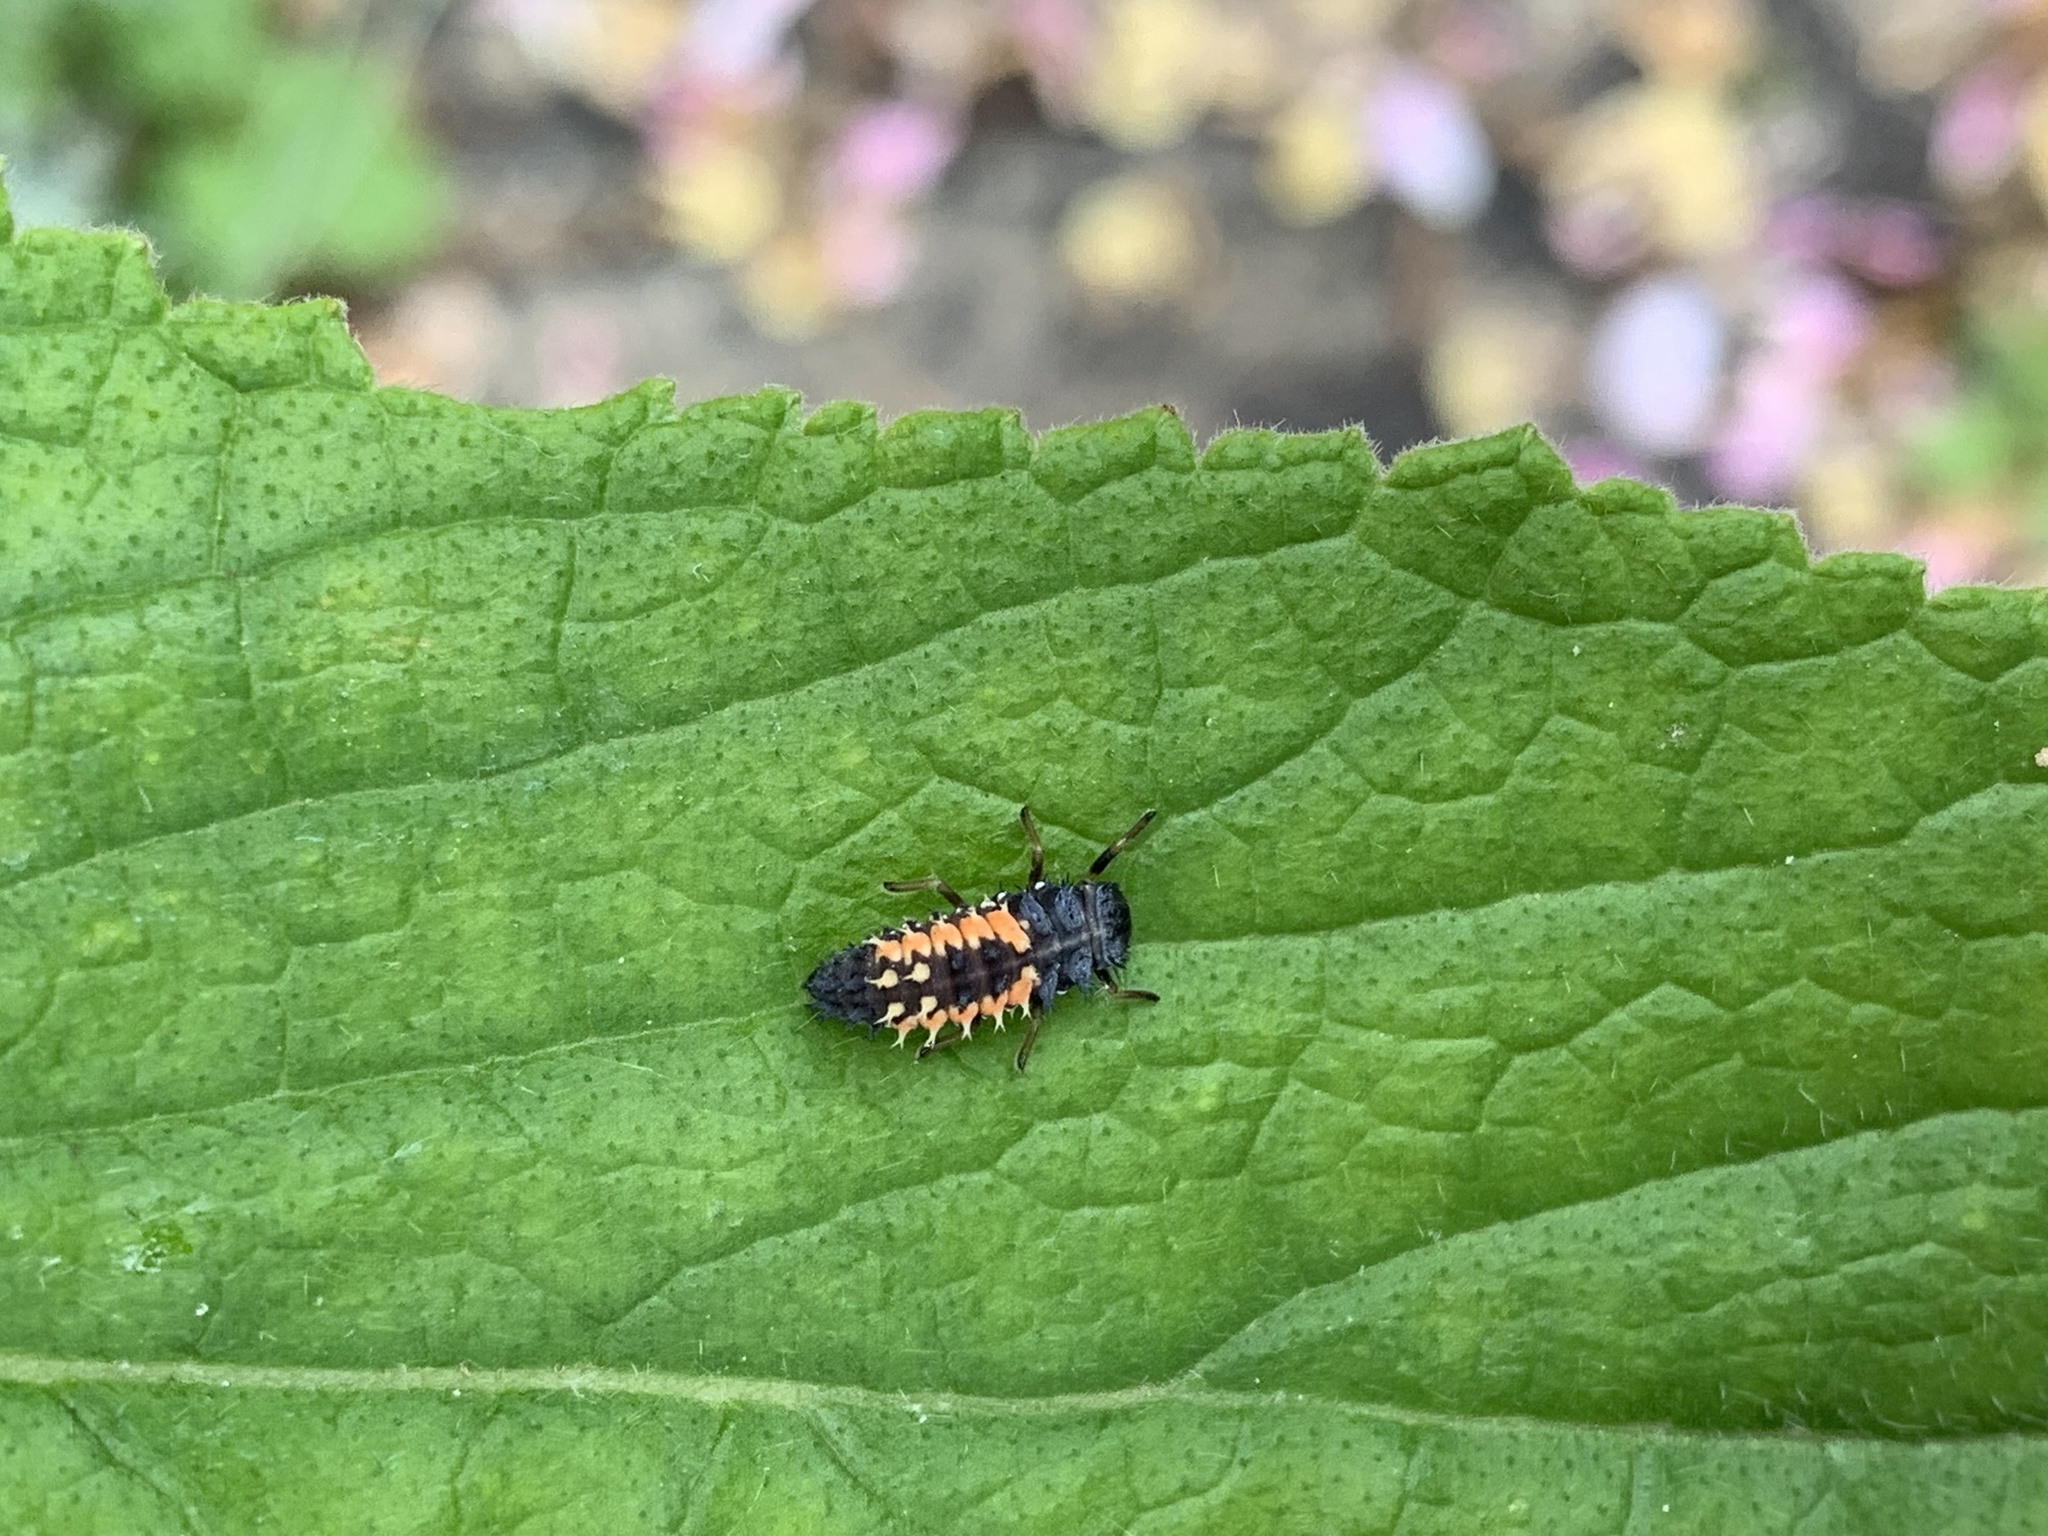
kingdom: Animalia
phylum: Arthropoda
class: Insecta
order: Coleoptera
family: Coccinellidae
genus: Harmonia
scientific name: Harmonia axyridis
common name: Harlequin ladybird
